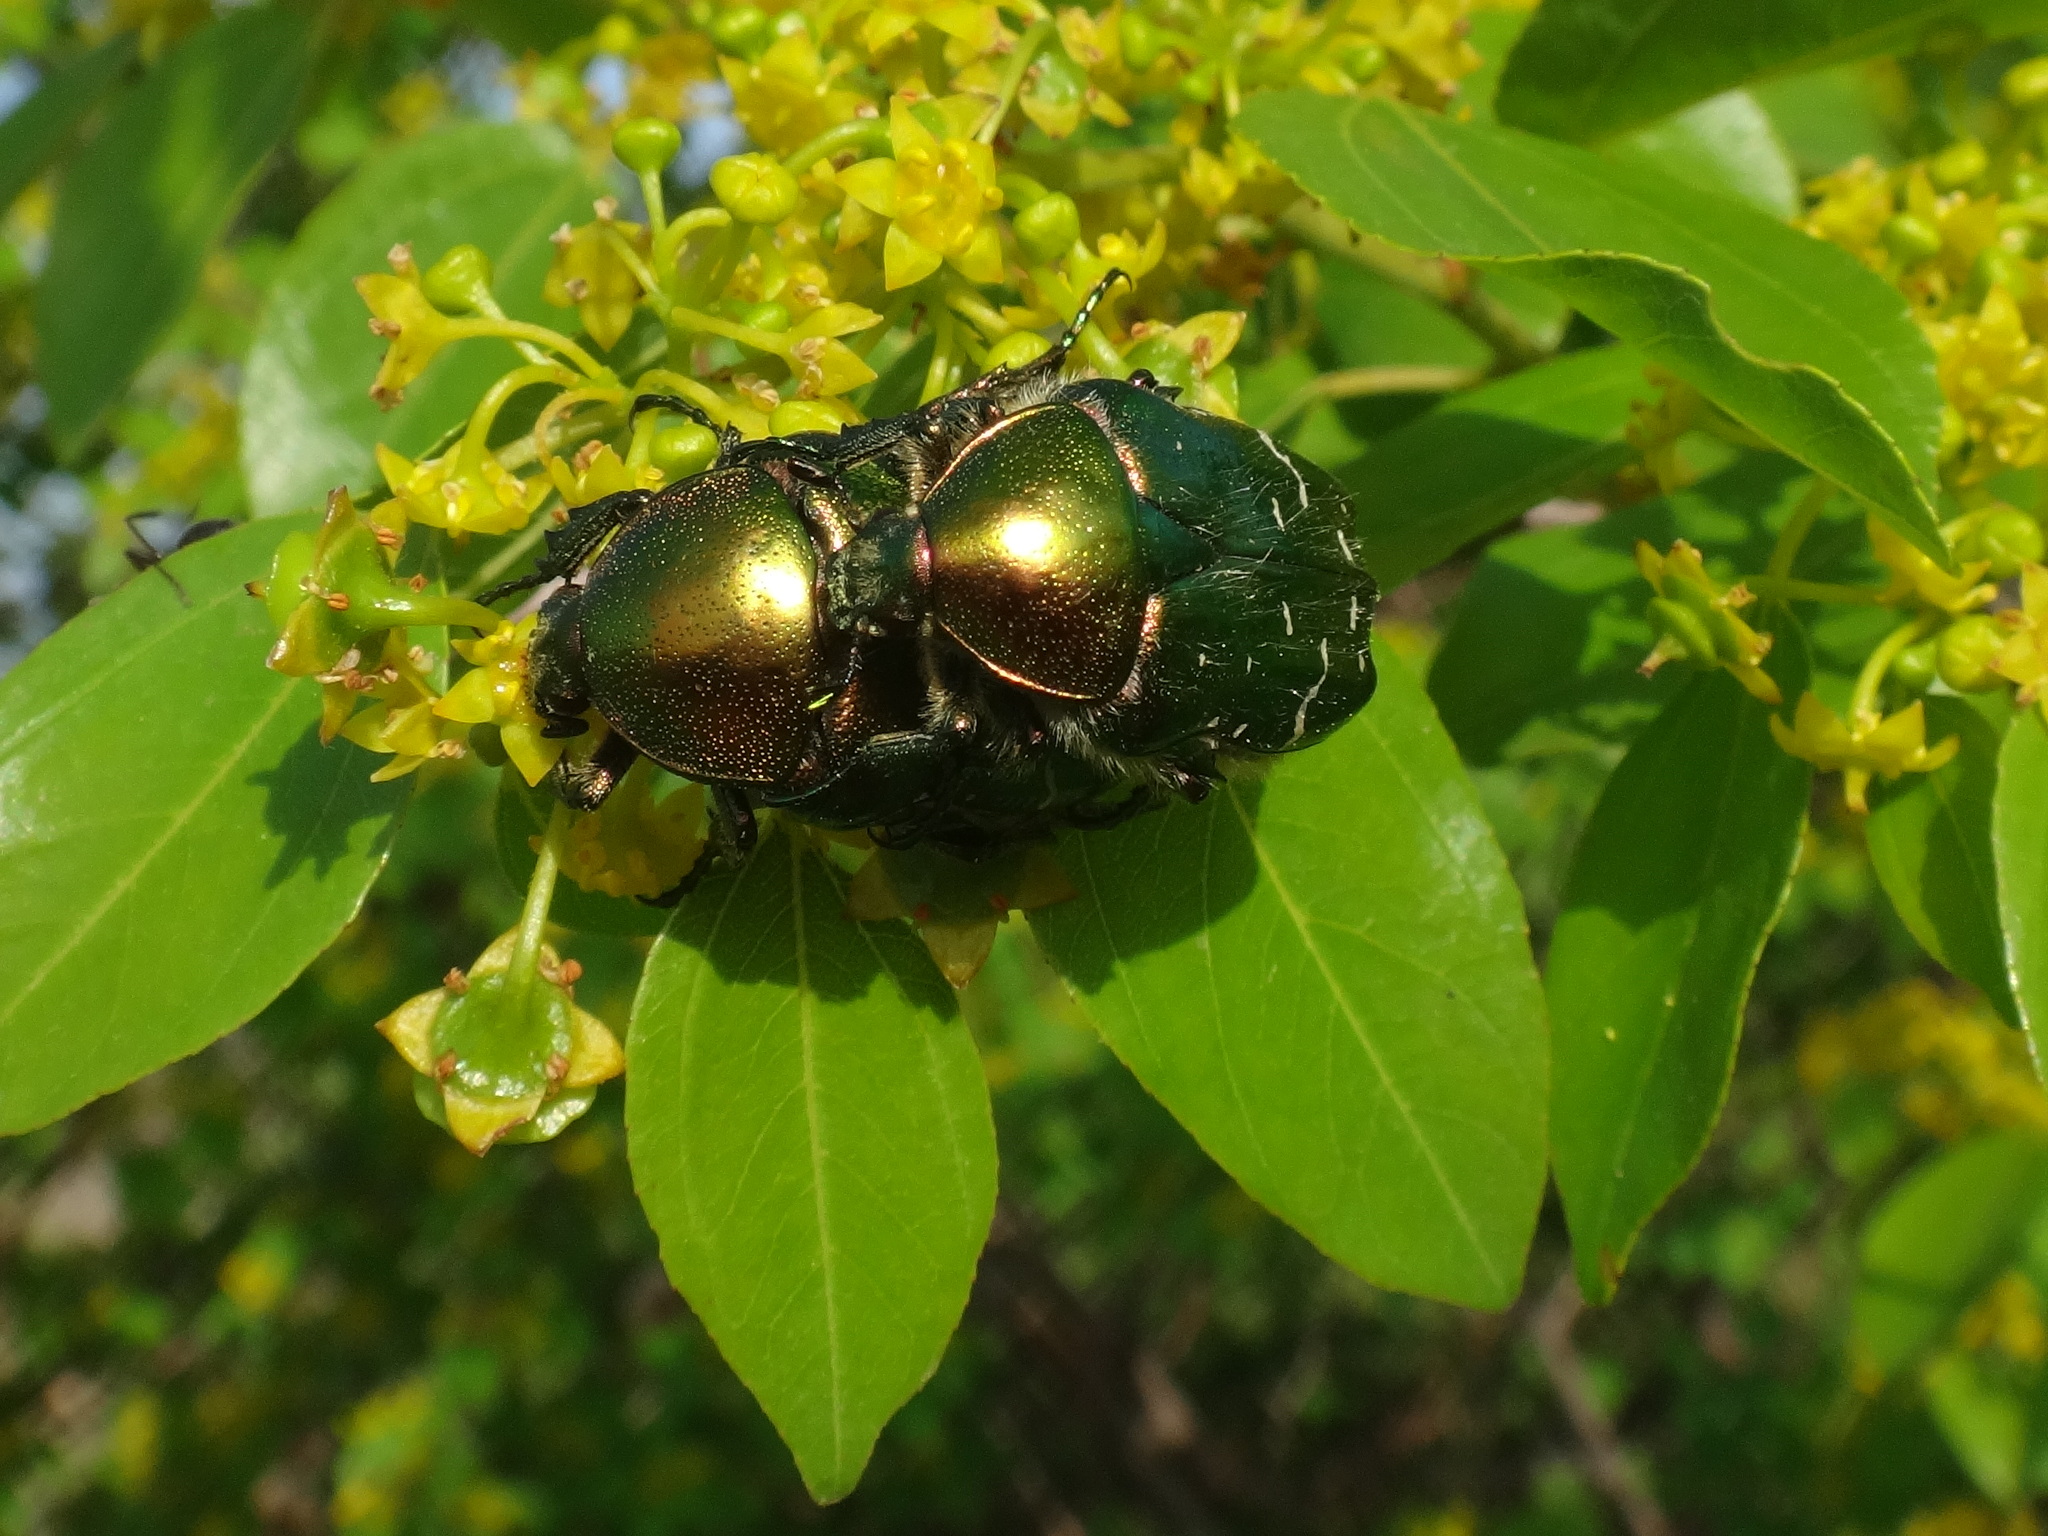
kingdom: Animalia
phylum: Arthropoda
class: Insecta
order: Coleoptera
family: Scarabaeidae
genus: Cetonia
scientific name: Cetonia aurata
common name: Rose chafer
